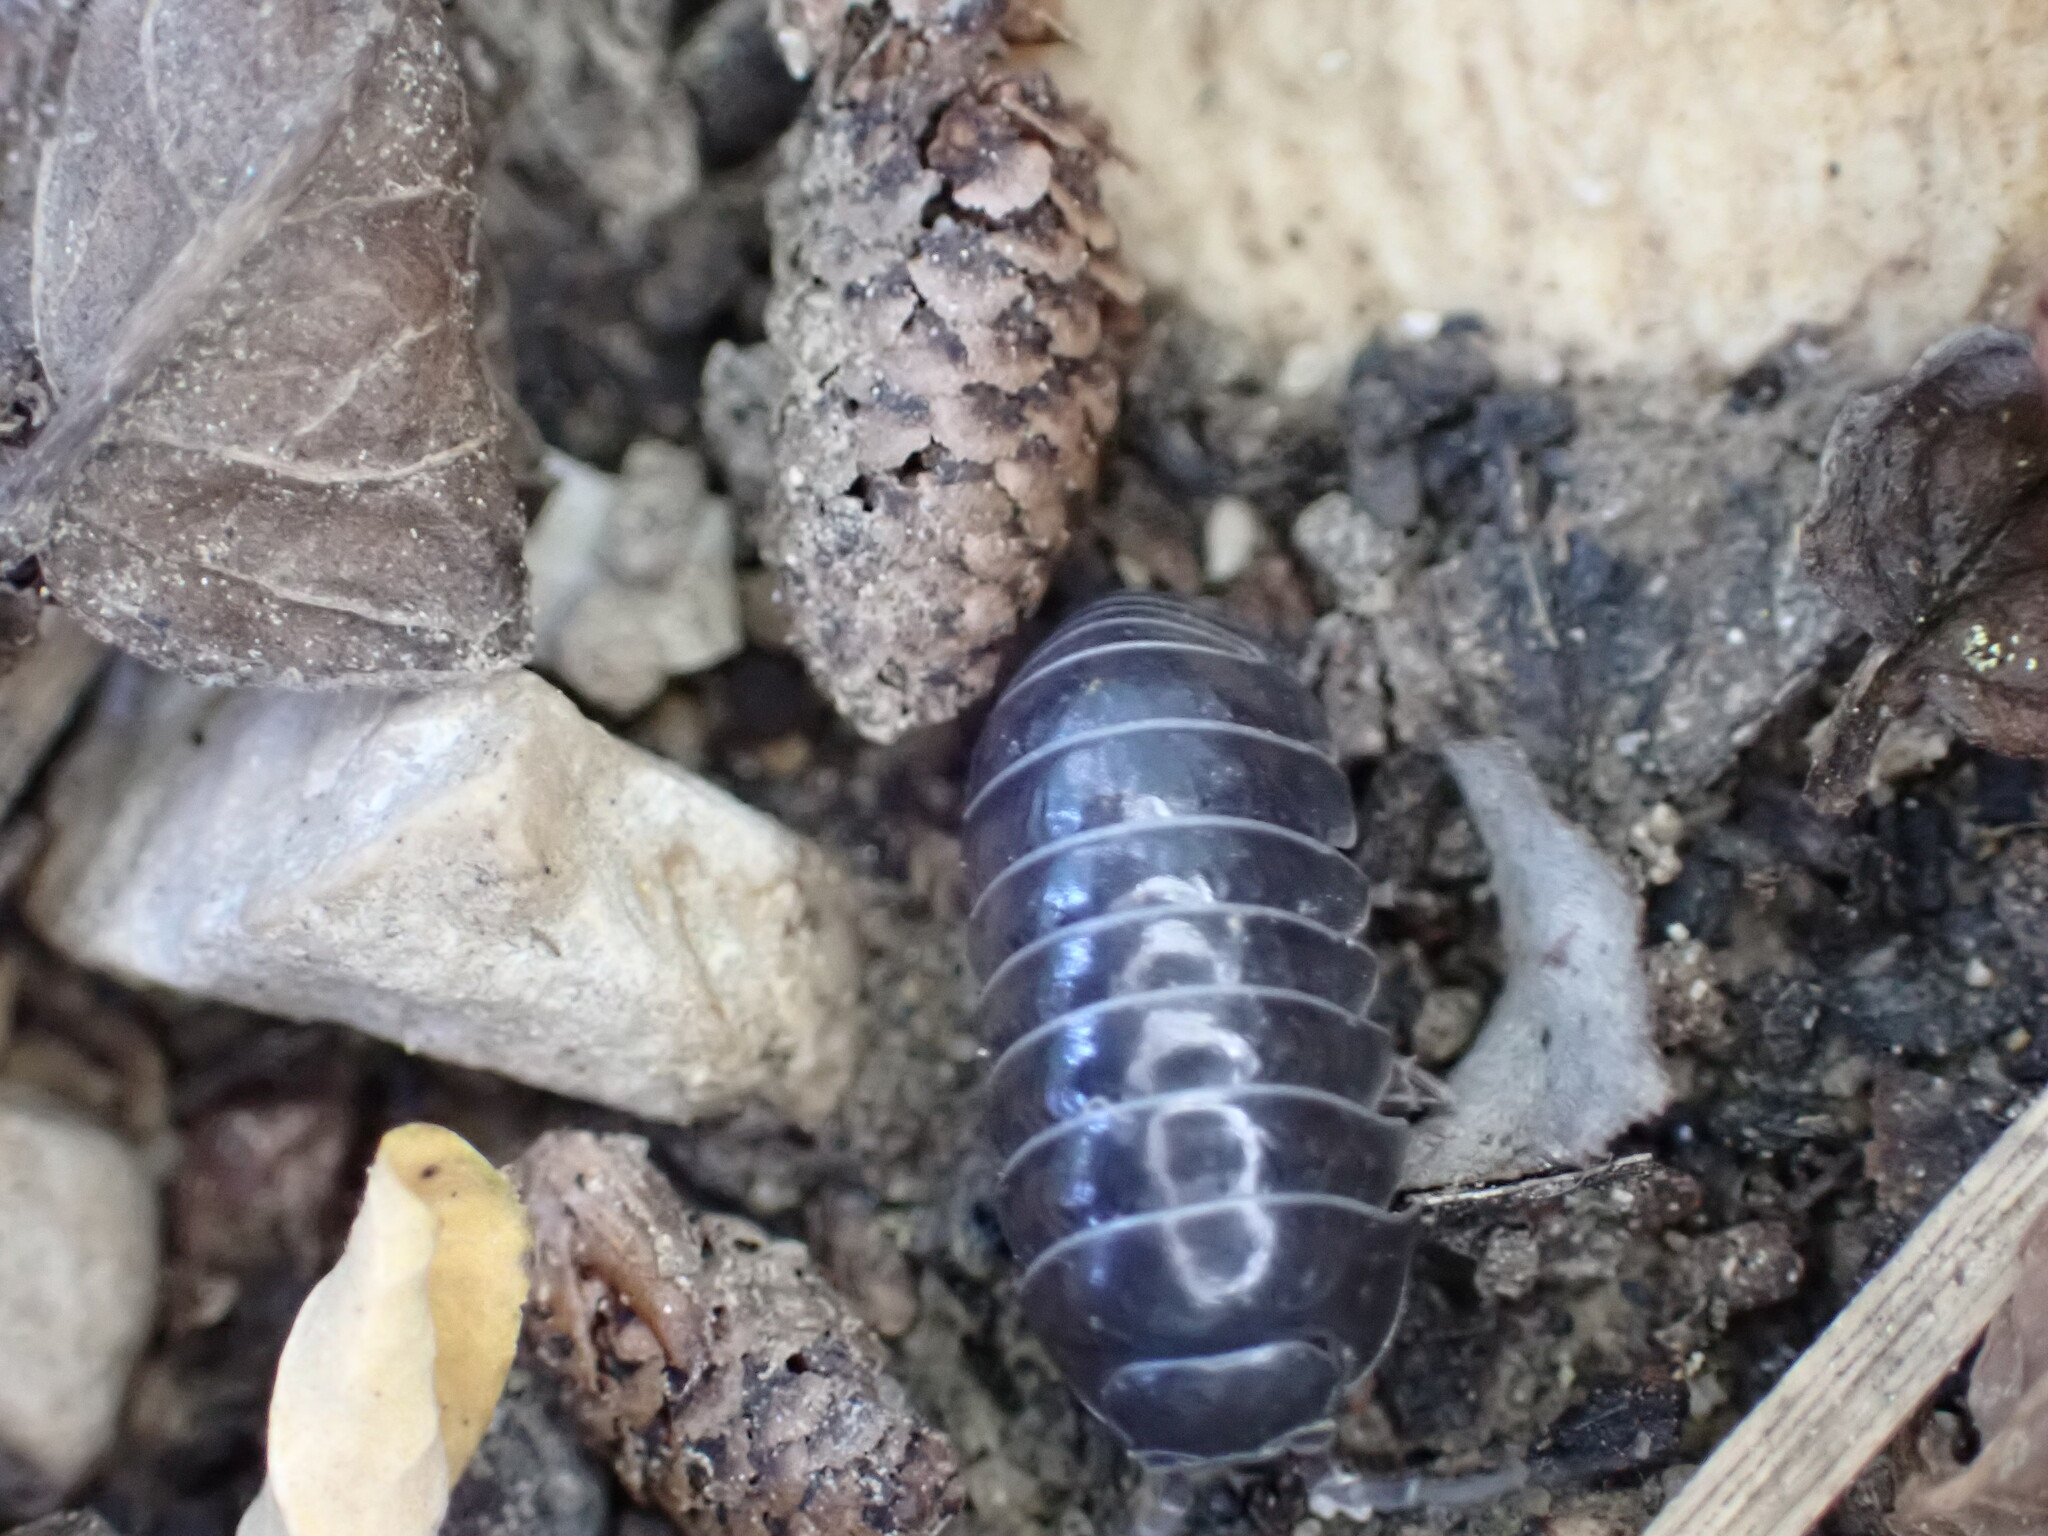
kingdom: Animalia
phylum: Arthropoda
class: Malacostraca
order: Isopoda
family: Armadillidiidae
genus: Armadillidium
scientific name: Armadillidium vulgare
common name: Common pill woodlouse
